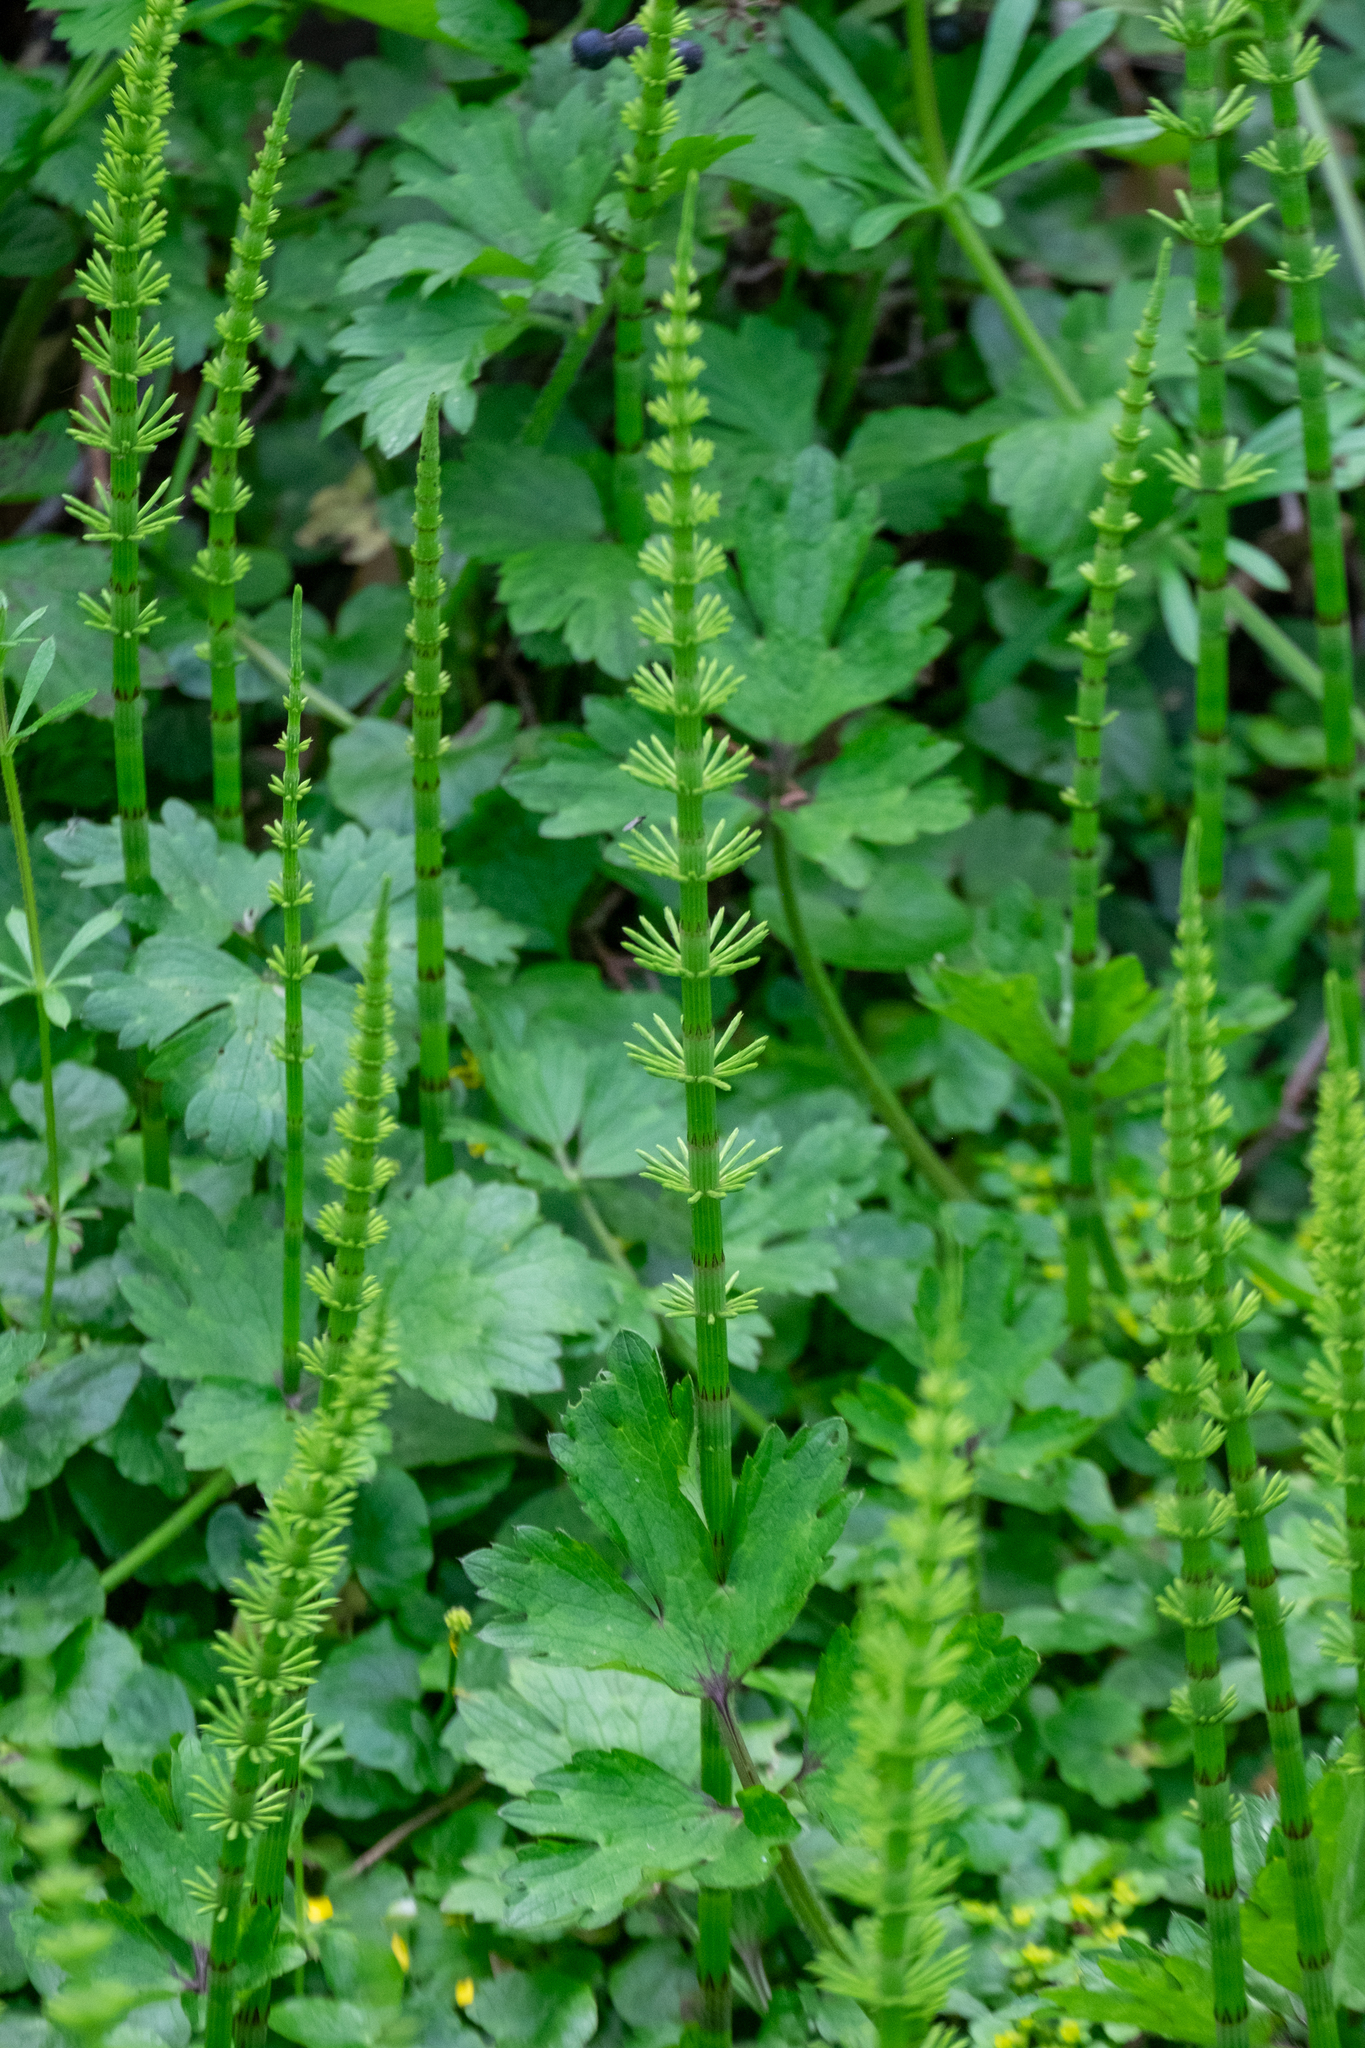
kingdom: Plantae
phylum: Tracheophyta
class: Polypodiopsida
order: Equisetales
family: Equisetaceae
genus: Equisetum
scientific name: Equisetum fluviatile
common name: Water horsetail
